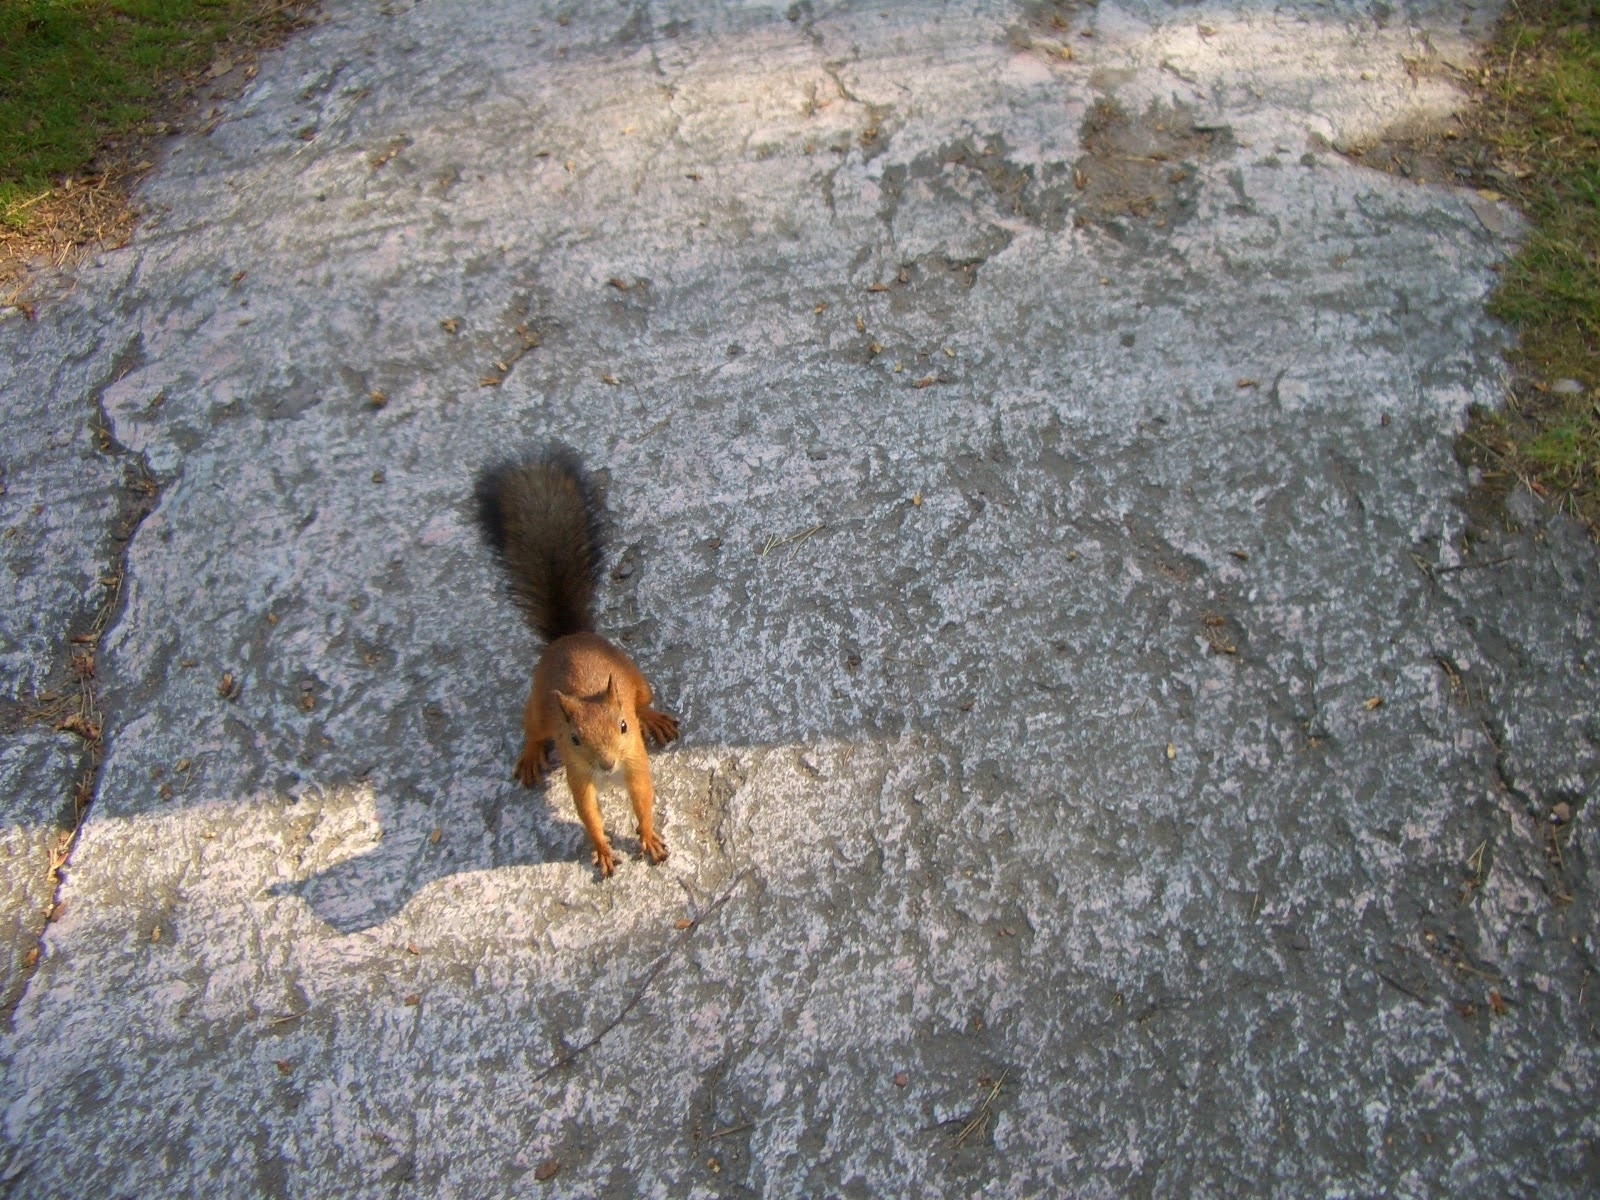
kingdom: Animalia
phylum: Chordata
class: Mammalia
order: Rodentia
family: Sciuridae
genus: Sciurus
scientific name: Sciurus vulgaris
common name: Eurasian red squirrel
